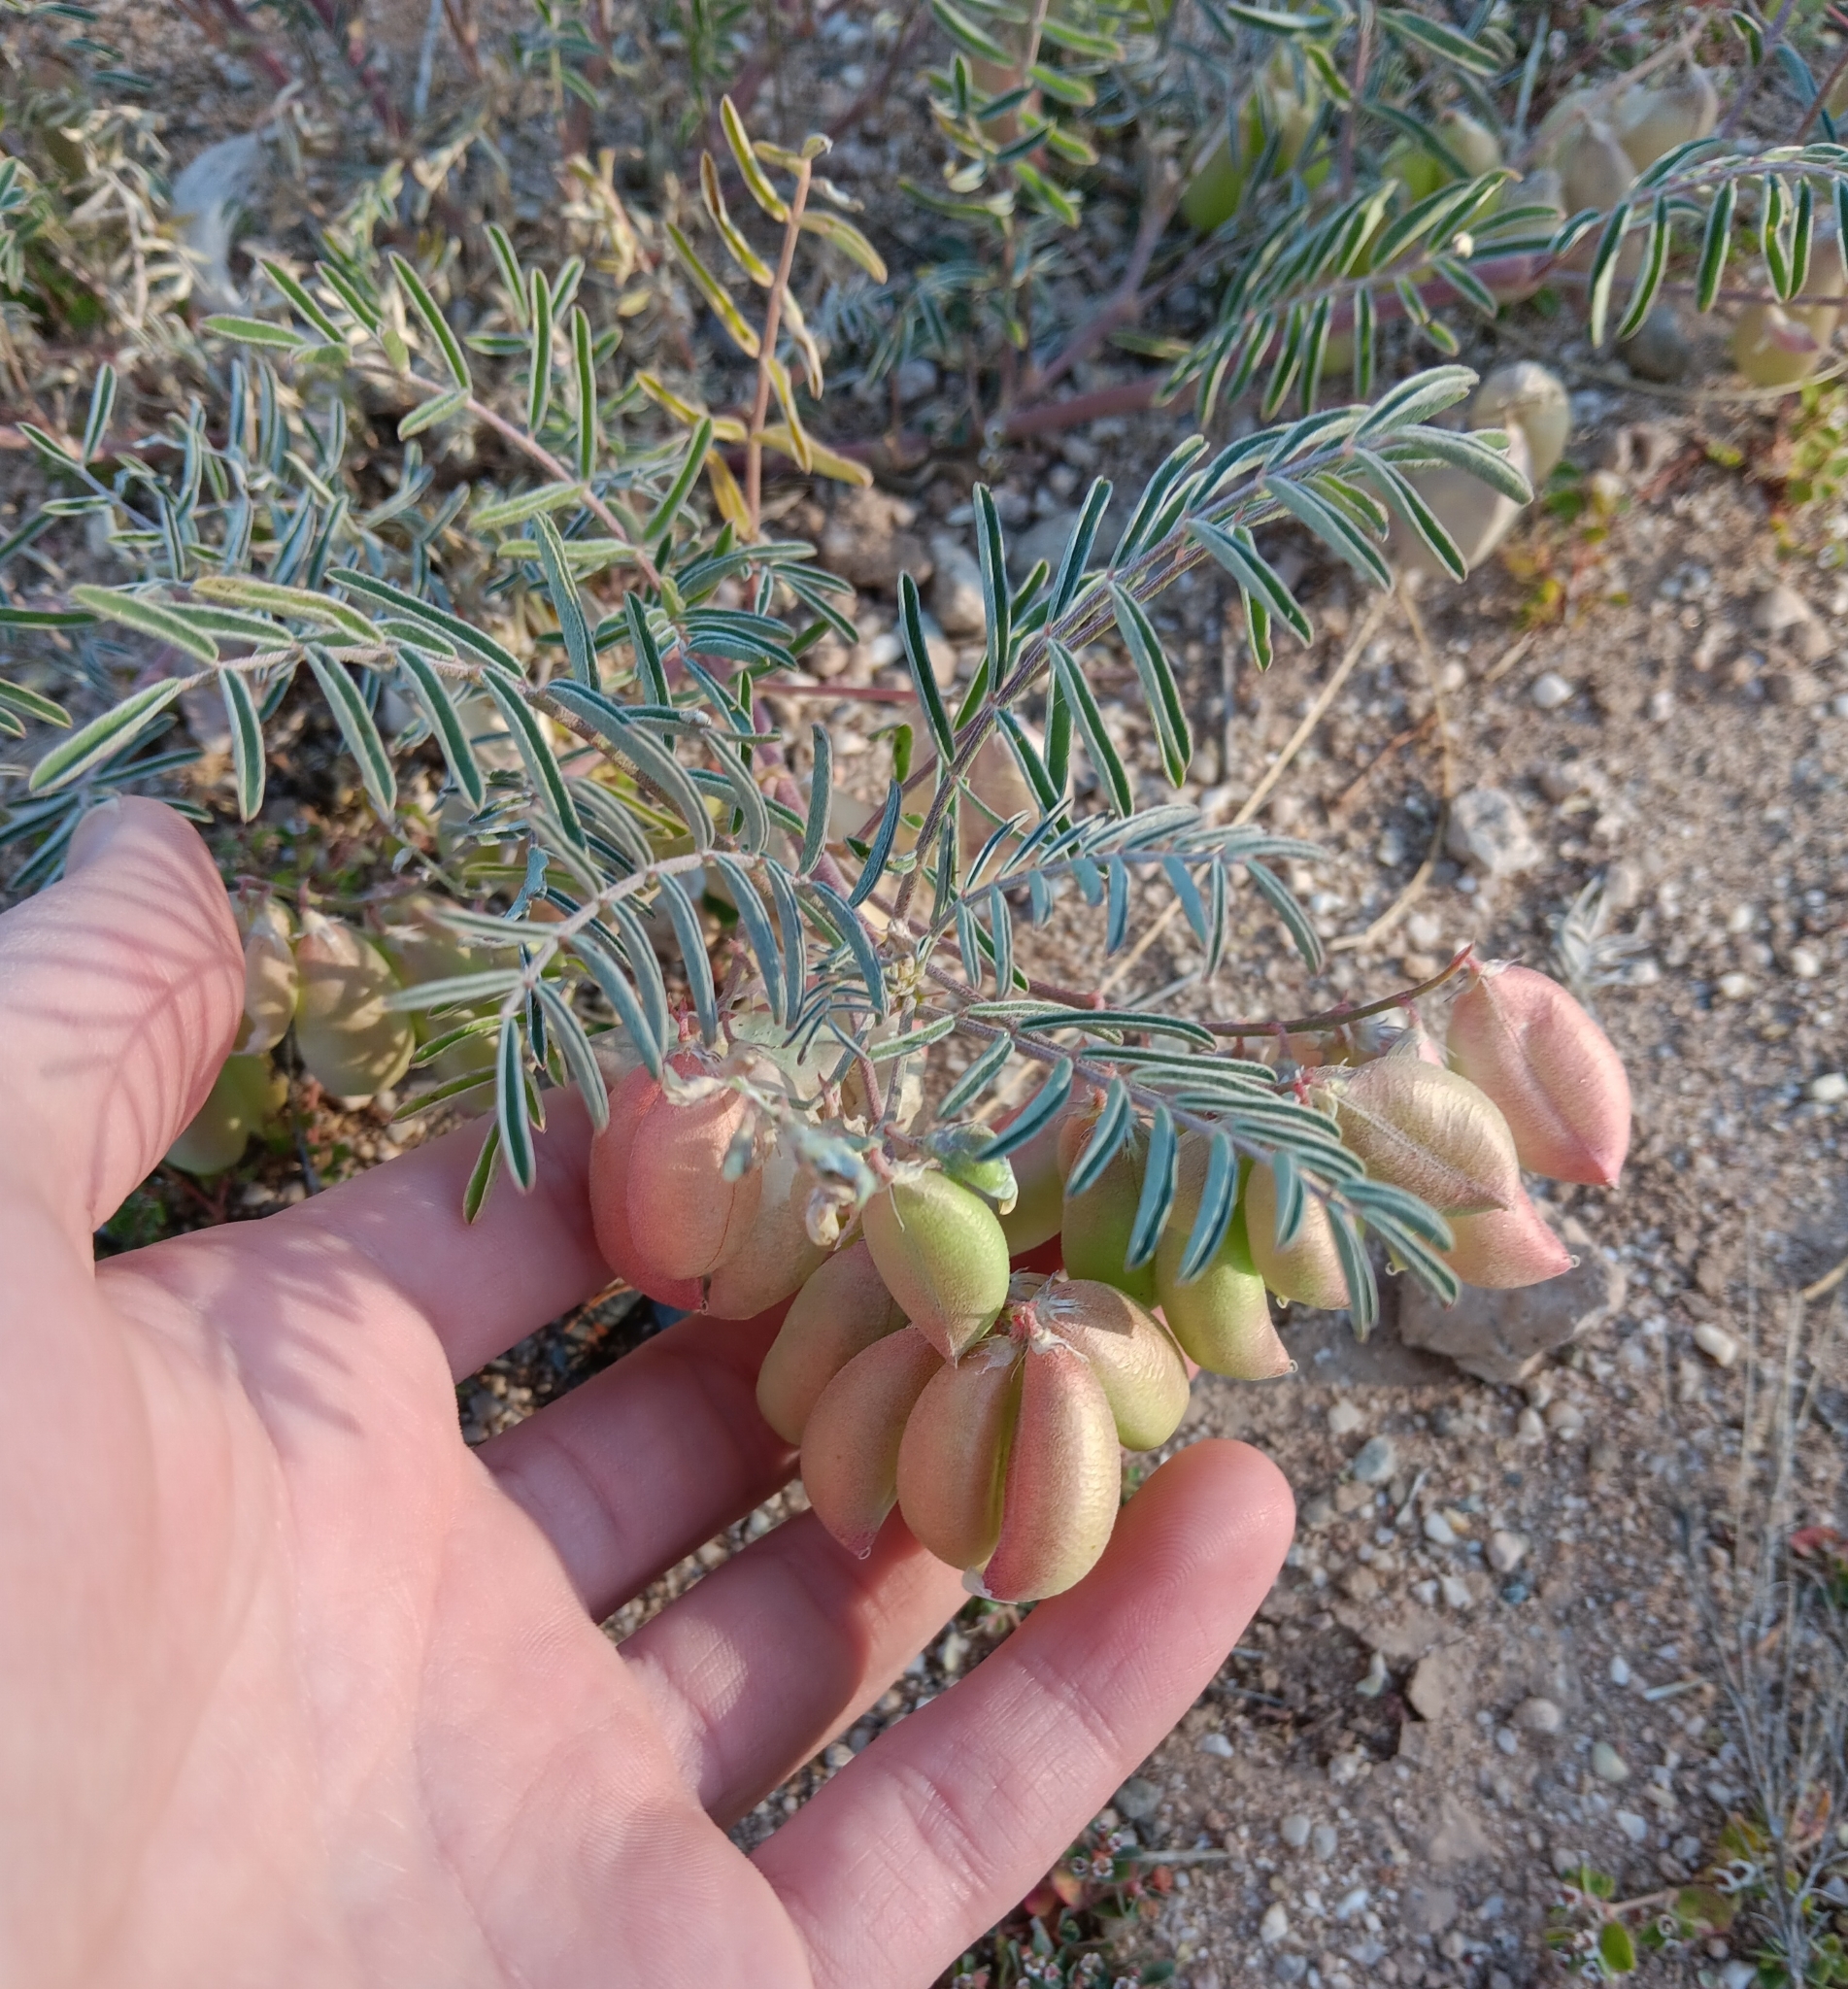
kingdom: Plantae
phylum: Tracheophyta
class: Magnoliopsida
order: Fabales
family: Fabaceae
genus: Astragalus
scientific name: Astragalus allochrous
